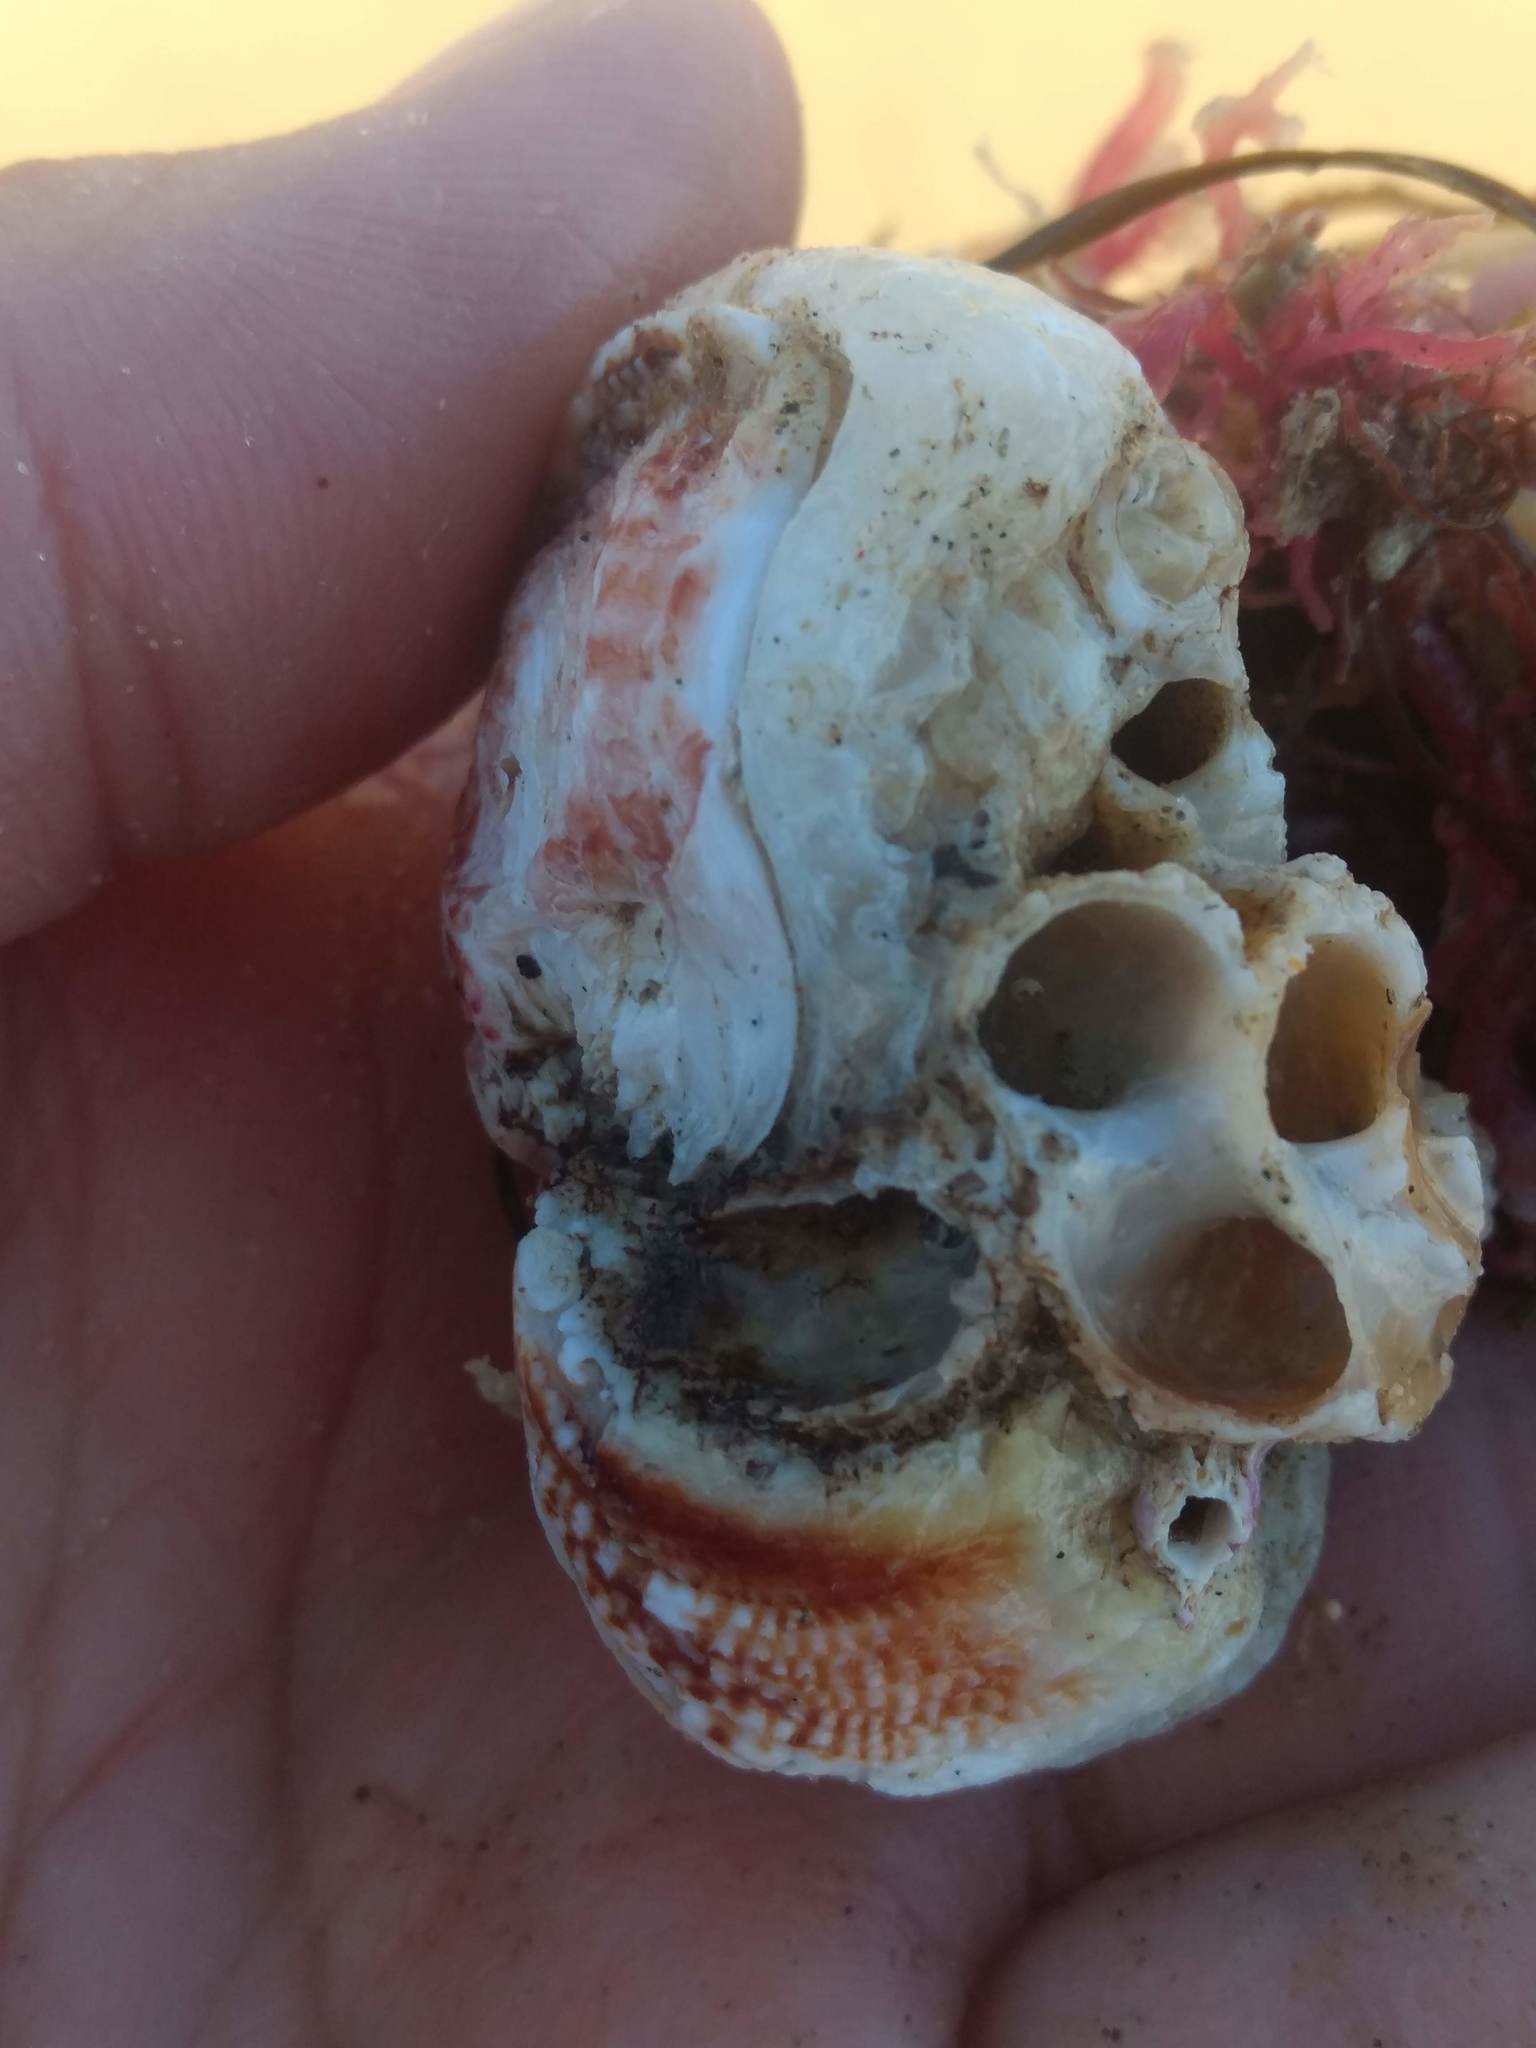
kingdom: Animalia
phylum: Mollusca
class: Bivalvia
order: Venerida
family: Chamidae
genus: Pseudochama
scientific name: Pseudochama exogyra
